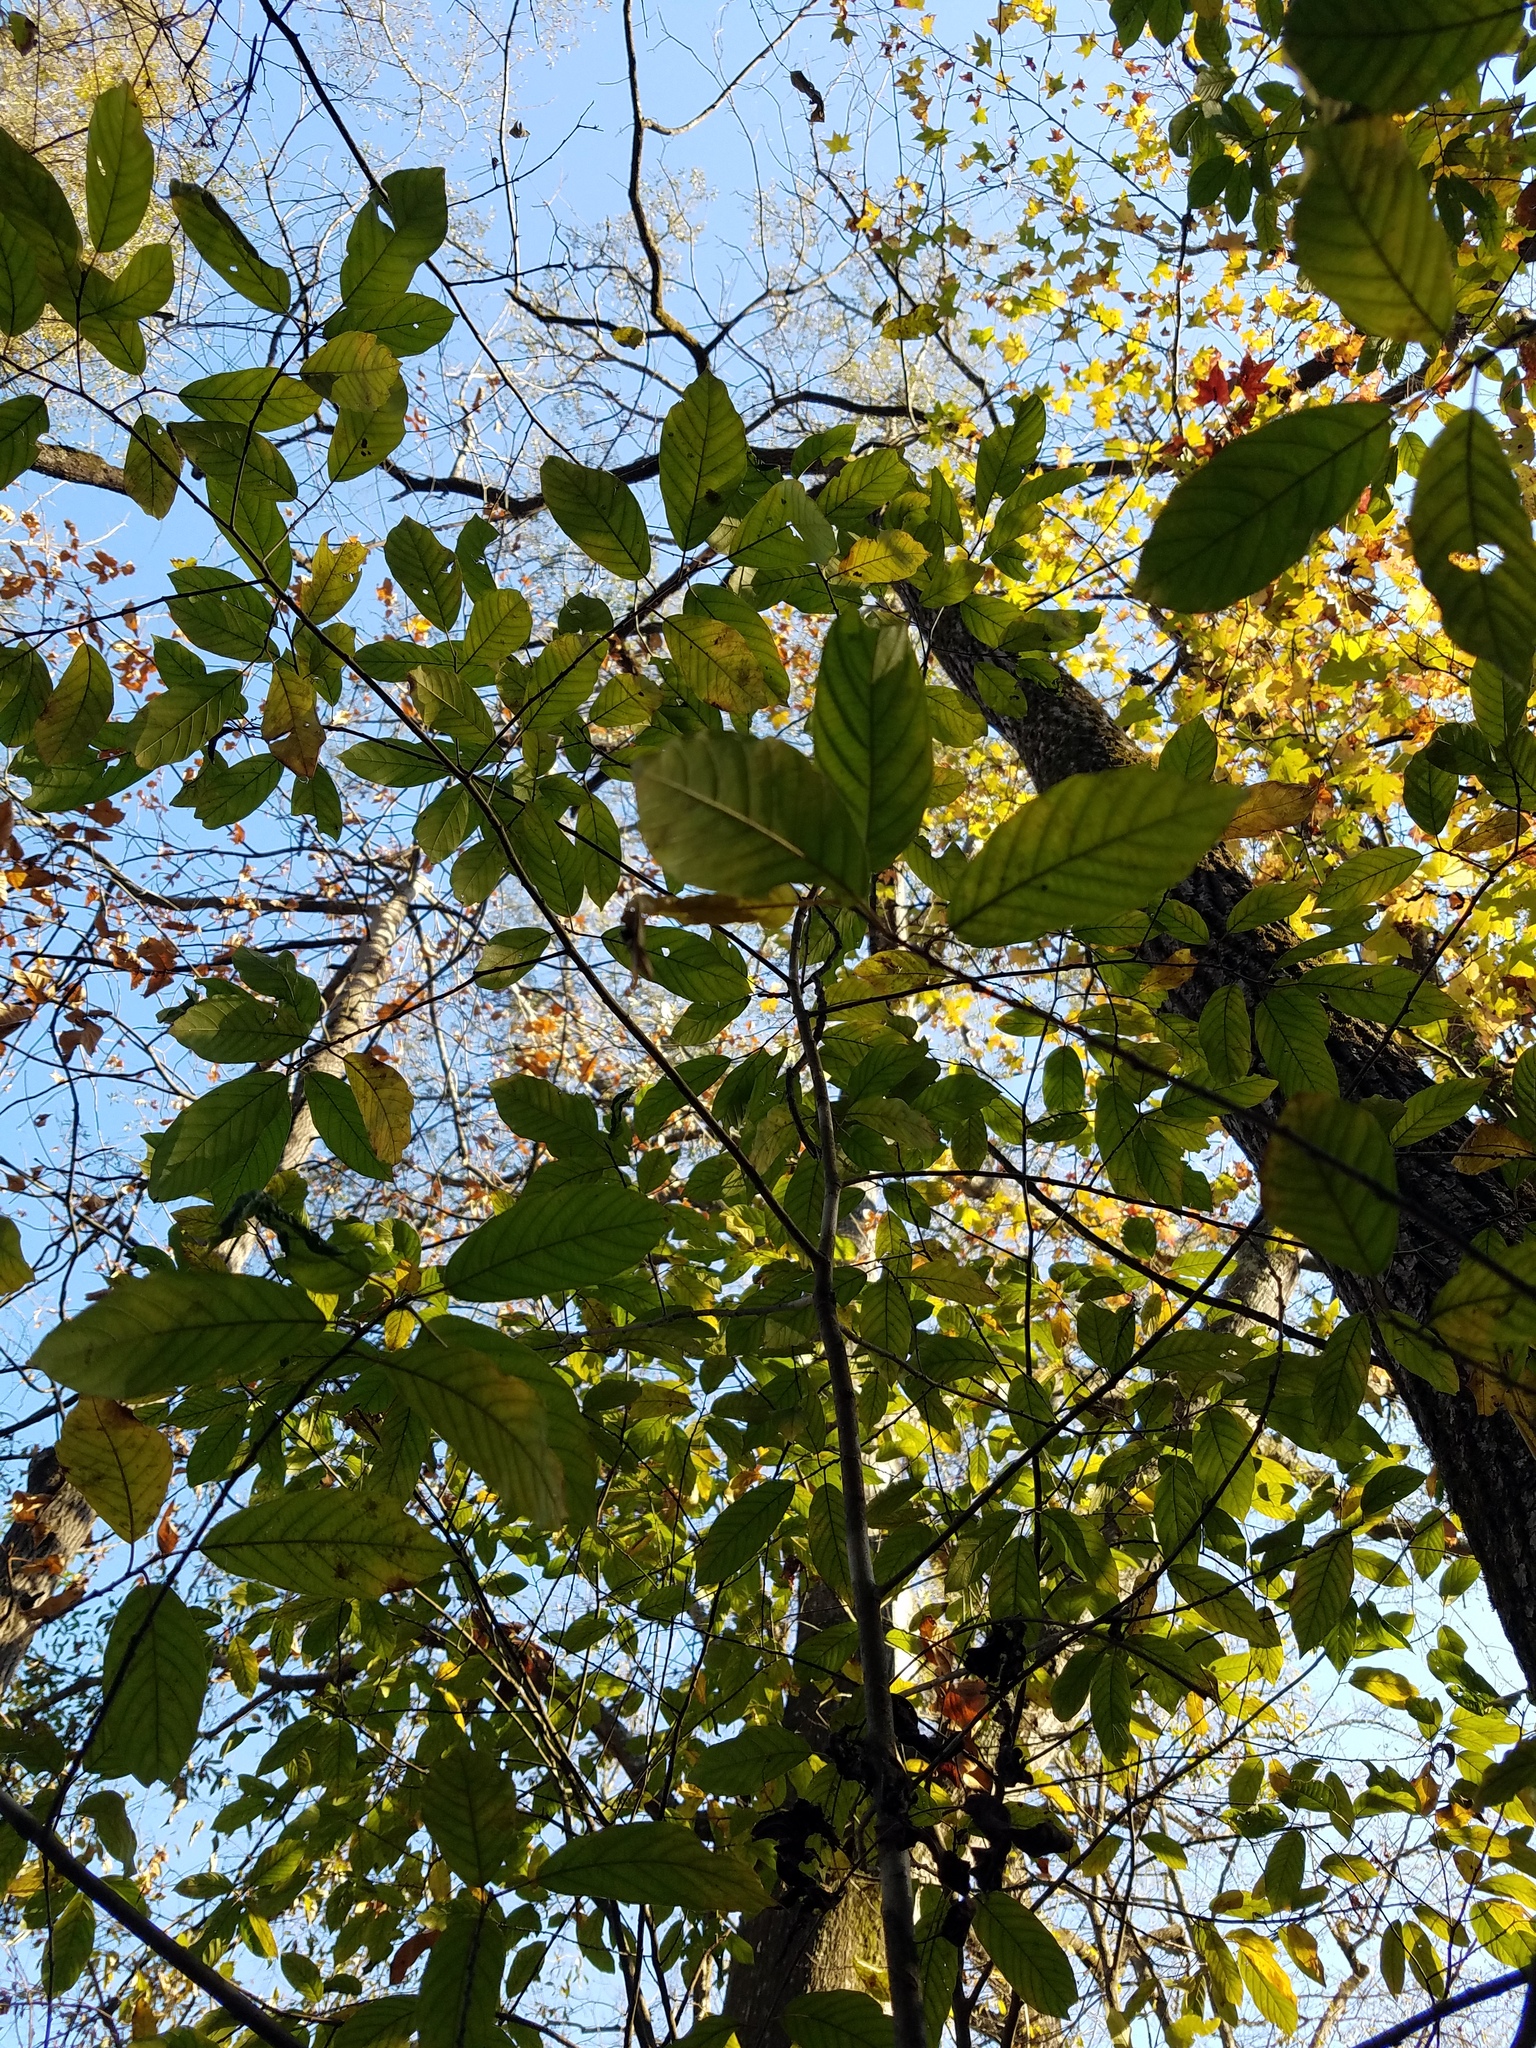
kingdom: Plantae
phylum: Tracheophyta
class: Magnoliopsida
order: Rosales
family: Rhamnaceae
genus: Frangula
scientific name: Frangula caroliniana
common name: Carolina buckthorn
